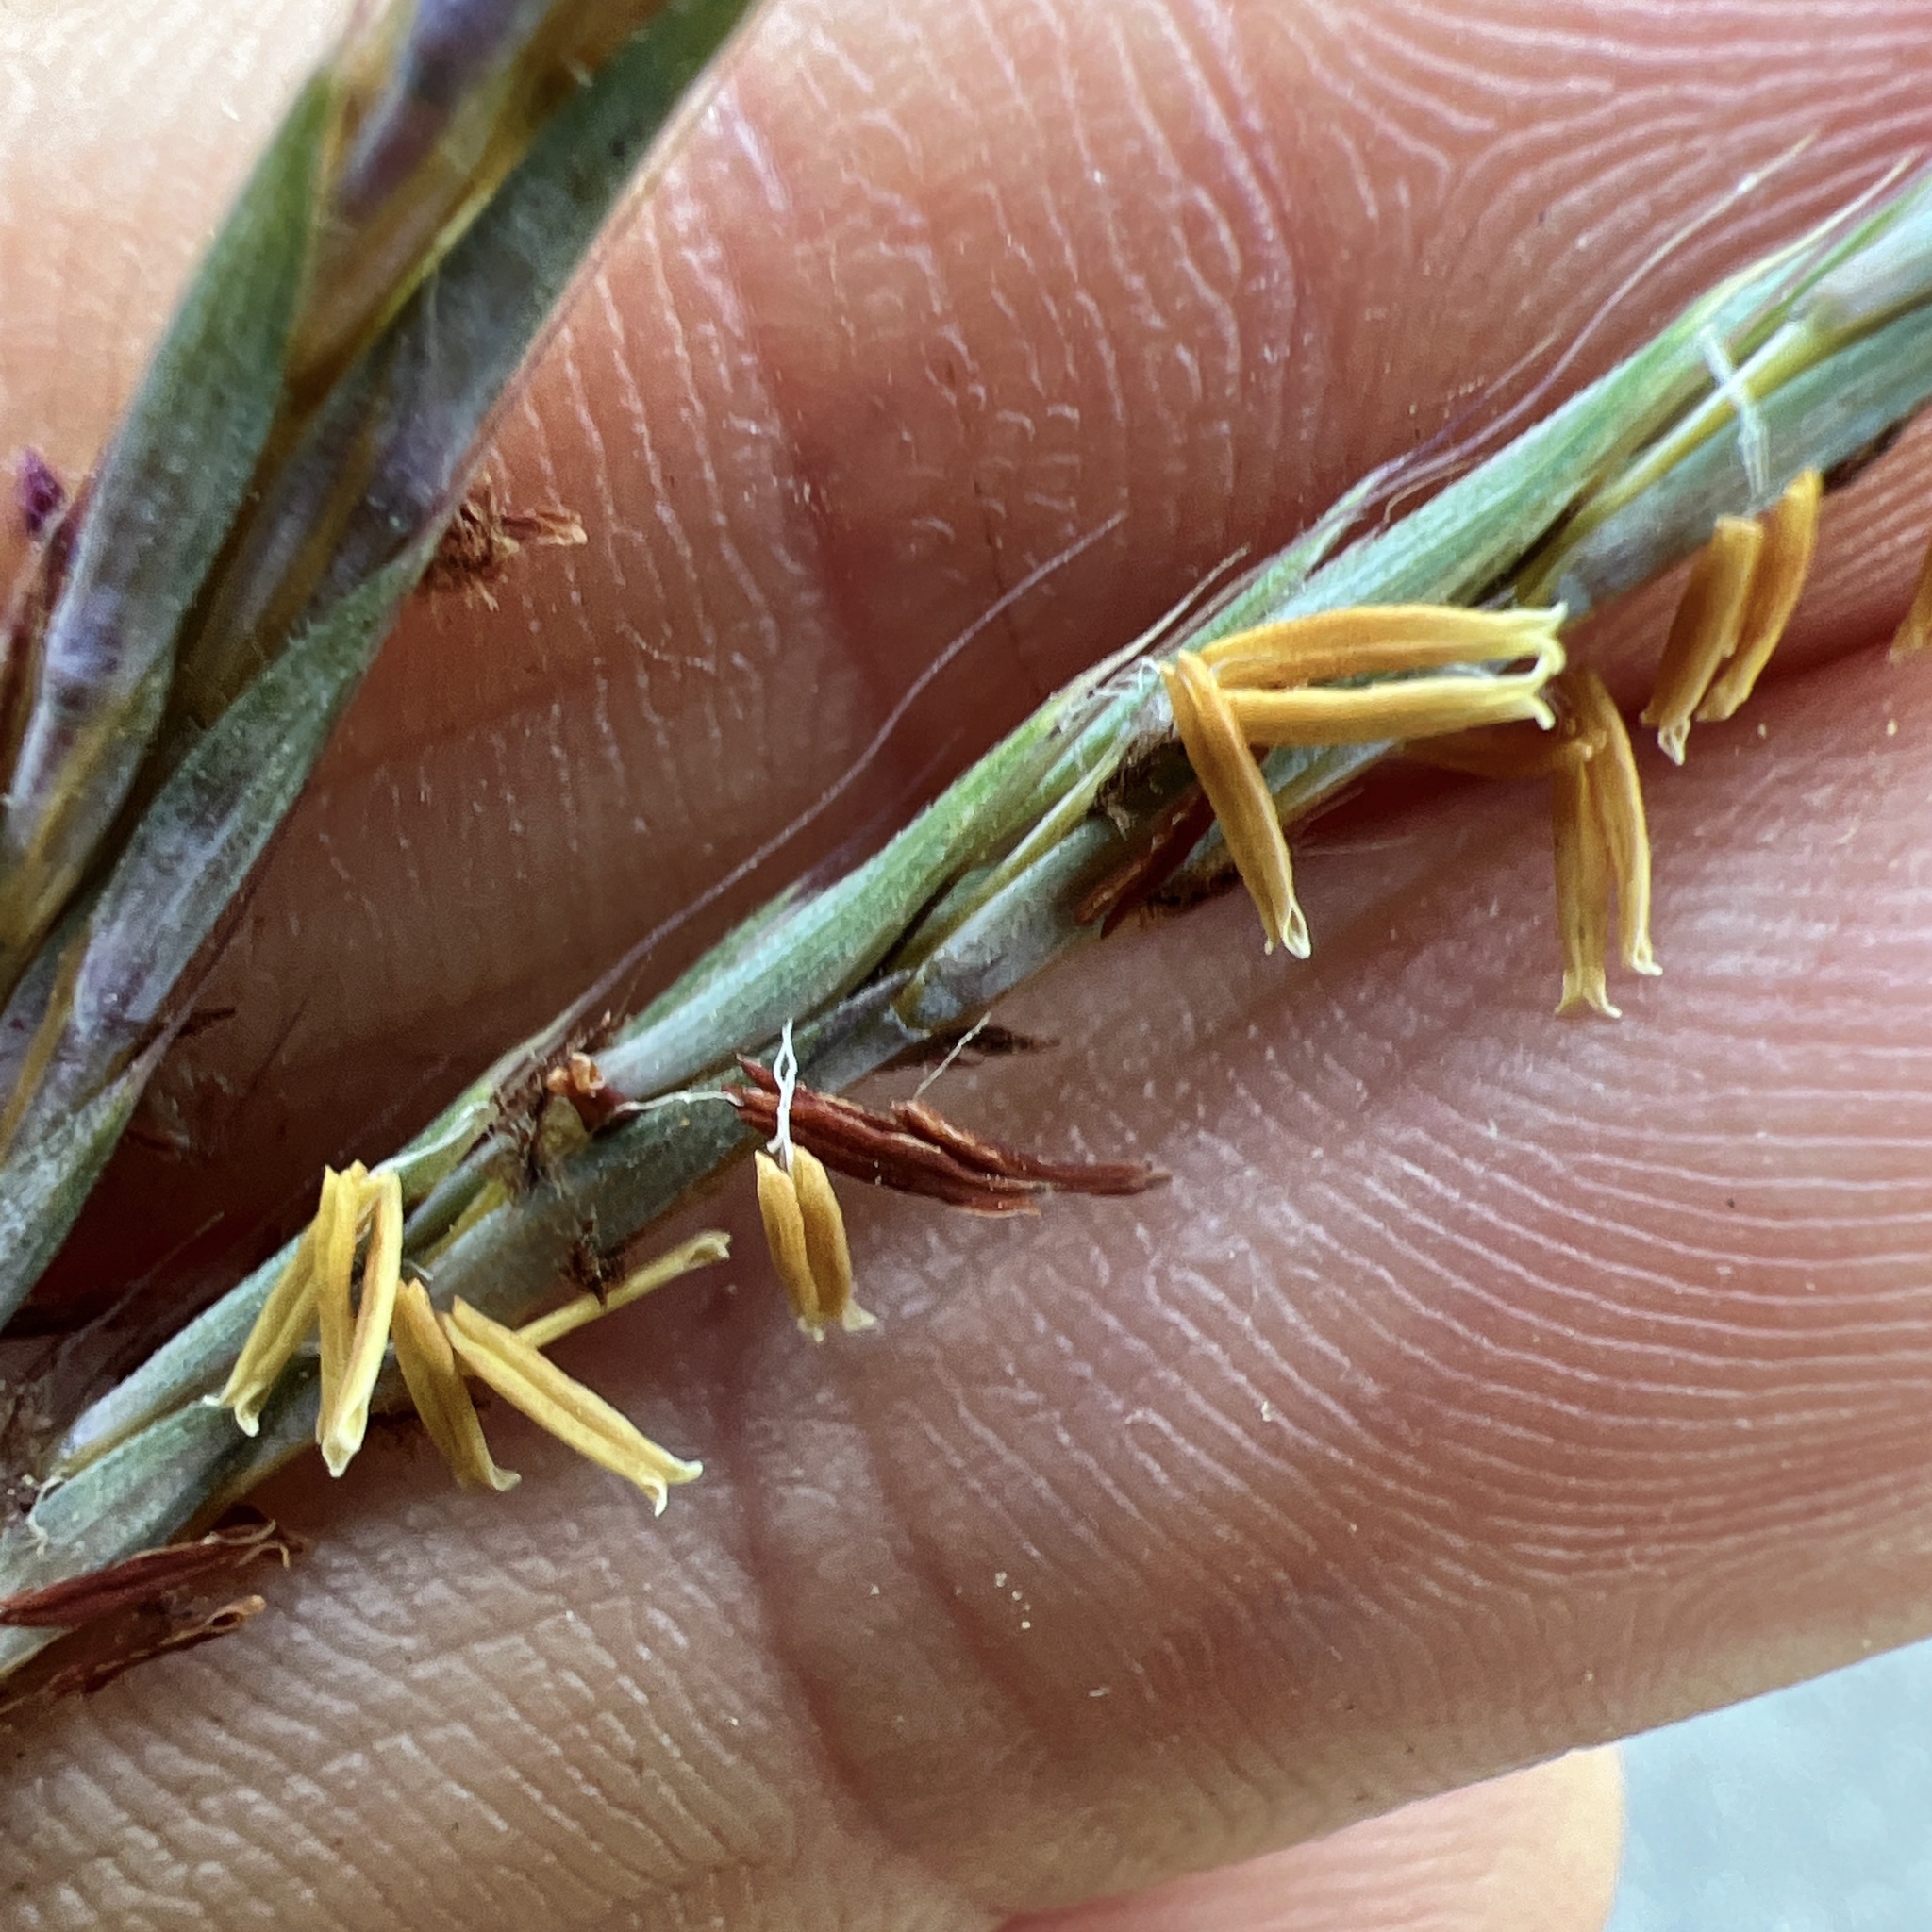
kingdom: Plantae
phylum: Tracheophyta
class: Liliopsida
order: Poales
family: Poaceae
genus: Andropogon
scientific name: Andropogon gerardi
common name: Big bluestem
